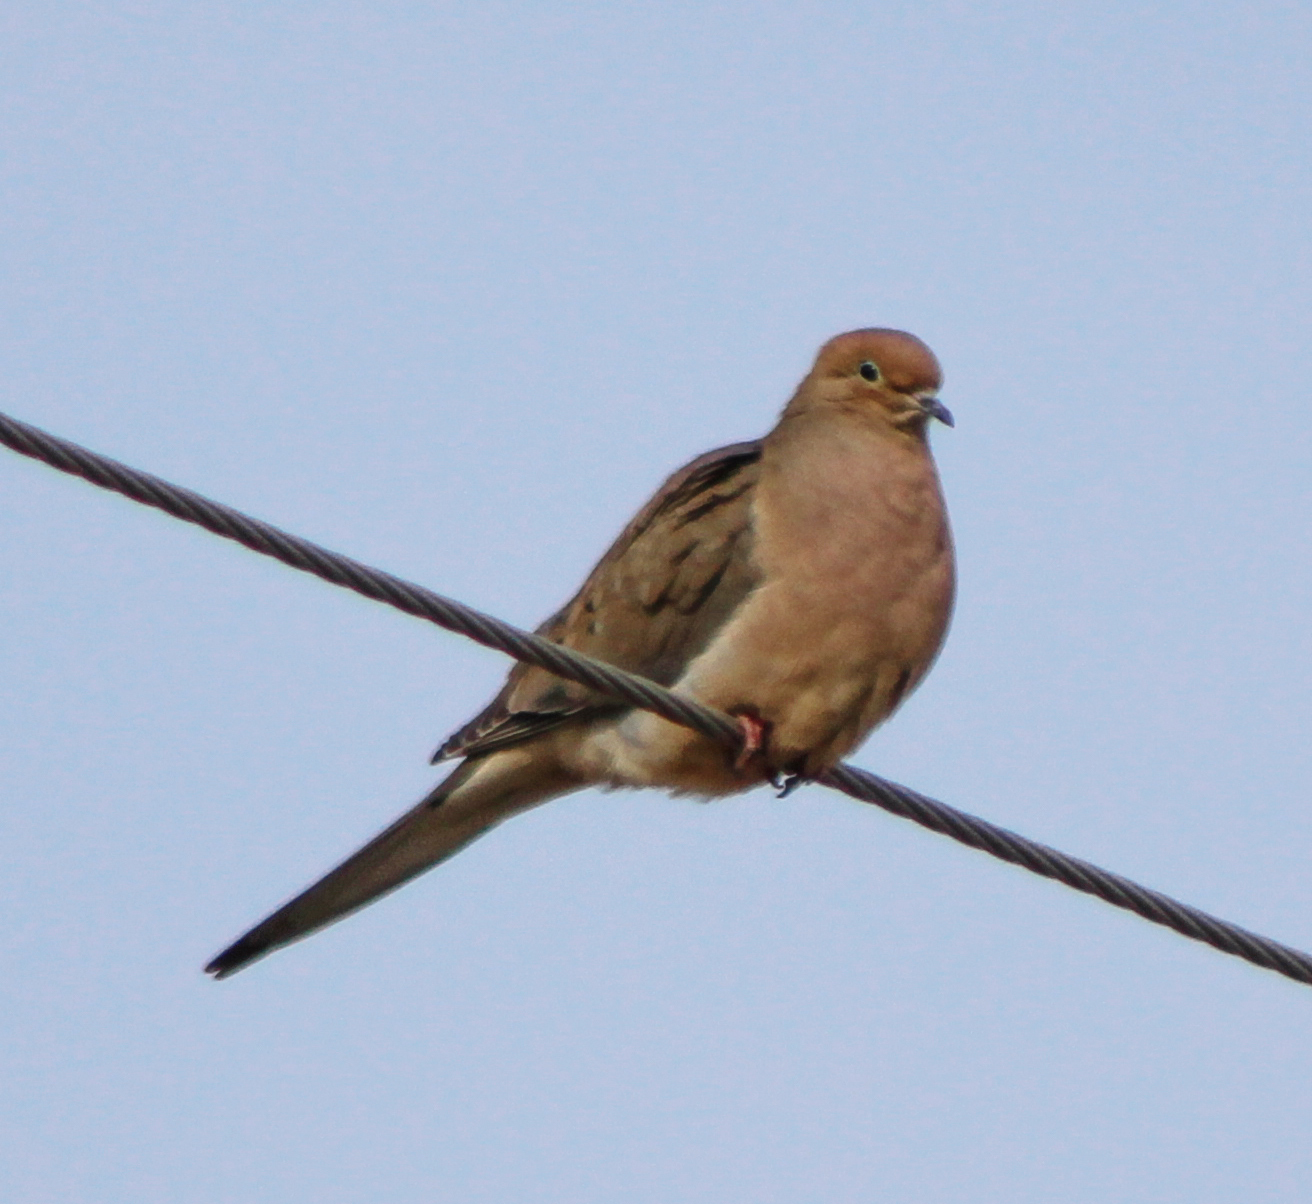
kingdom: Animalia
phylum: Chordata
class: Aves
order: Columbiformes
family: Columbidae
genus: Zenaida
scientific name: Zenaida macroura
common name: Mourning dove
